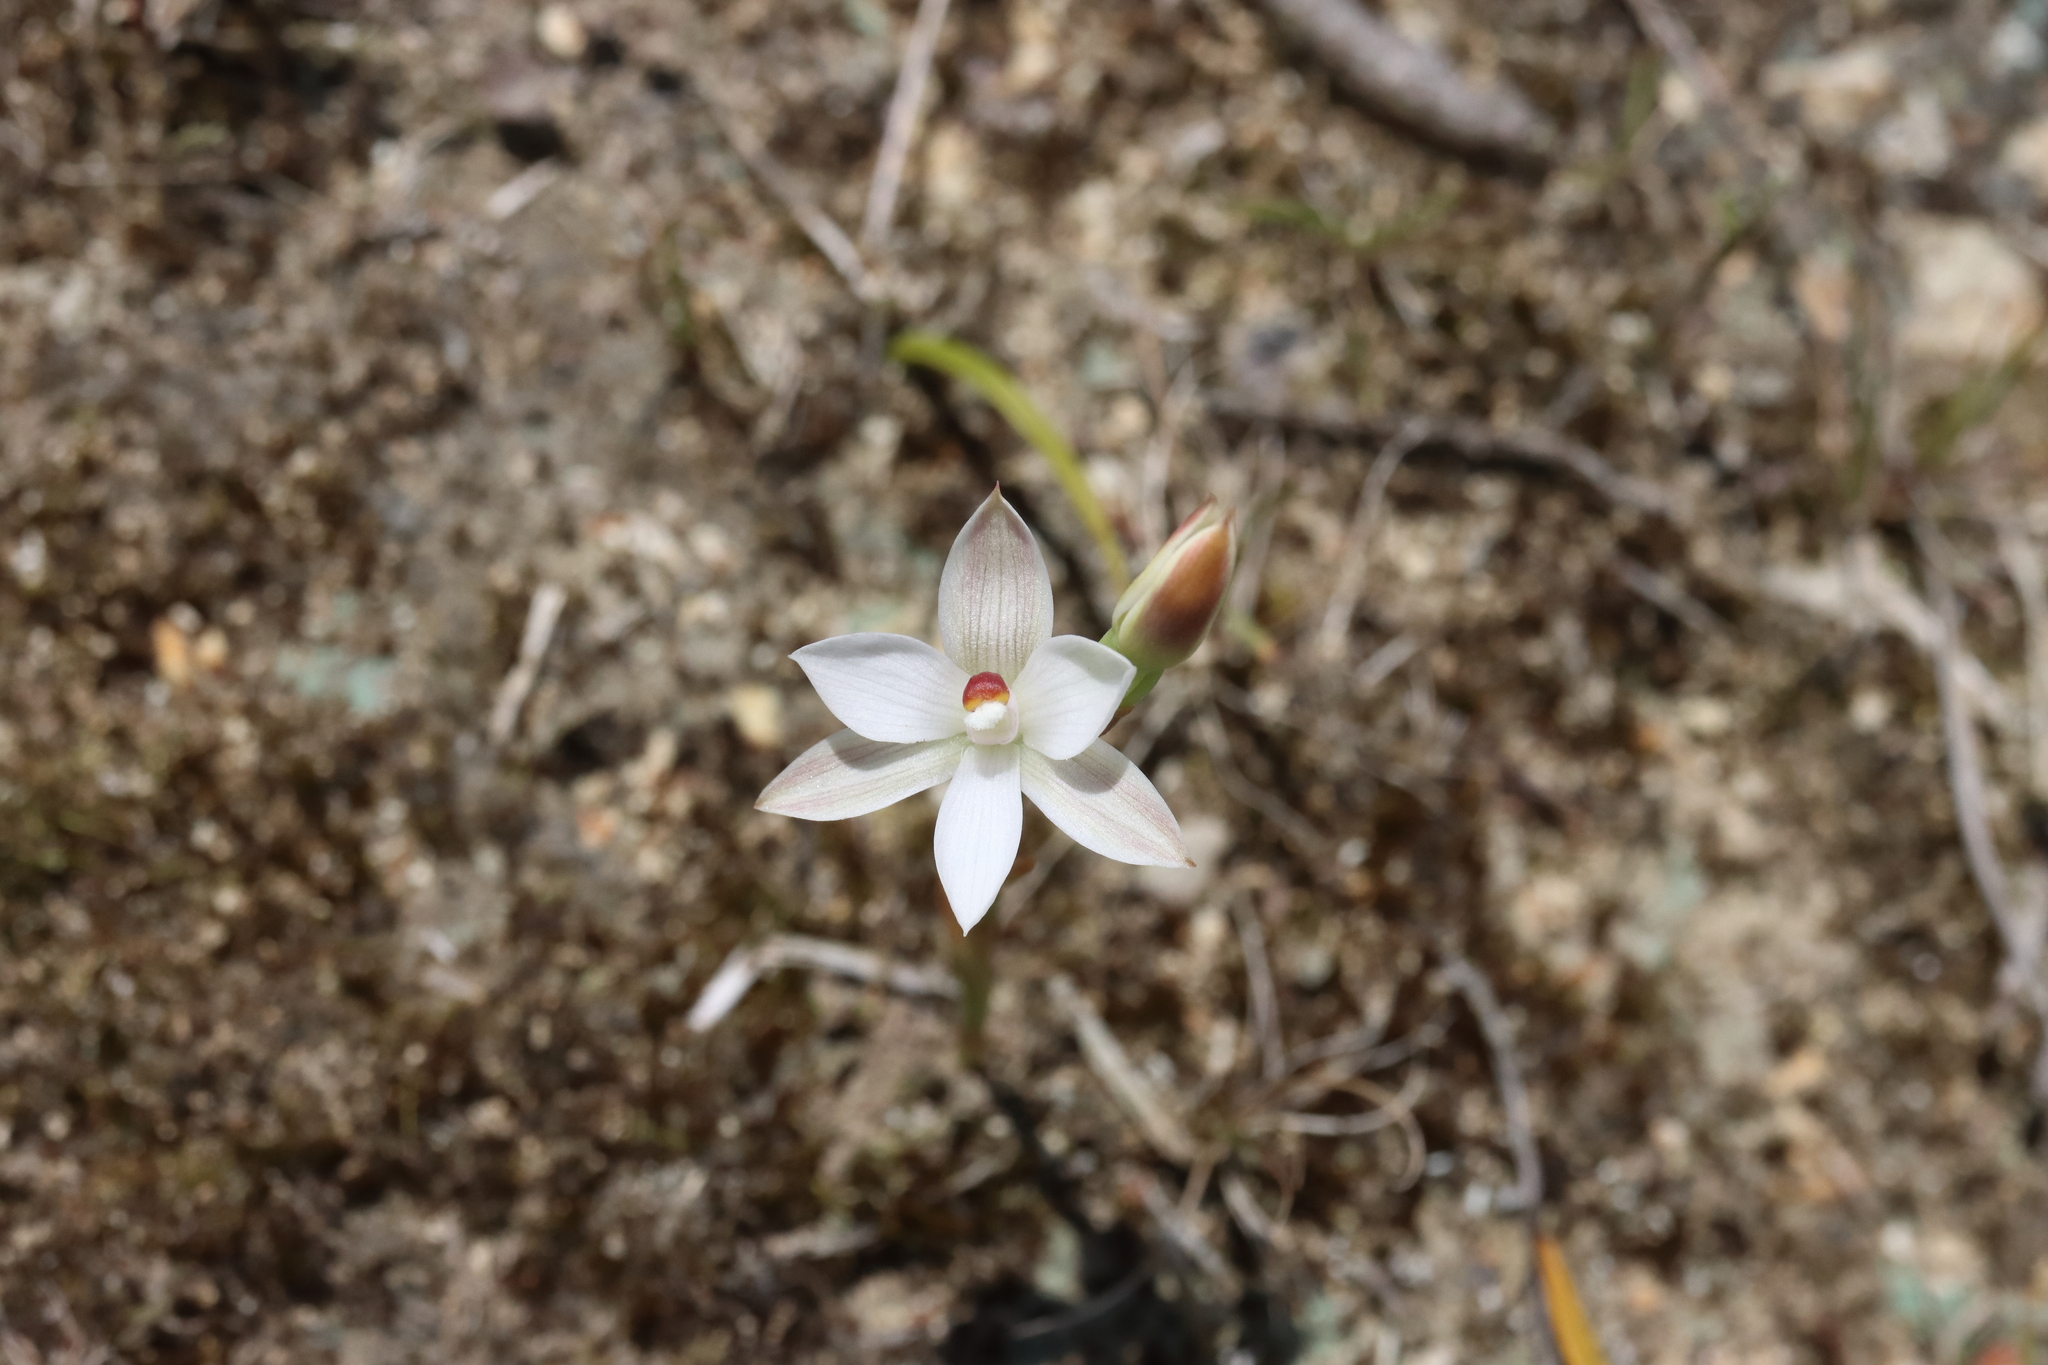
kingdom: Plantae
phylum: Tracheophyta
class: Liliopsida
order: Asparagales
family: Orchidaceae
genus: Thelymitra
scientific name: Thelymitra longifolia
